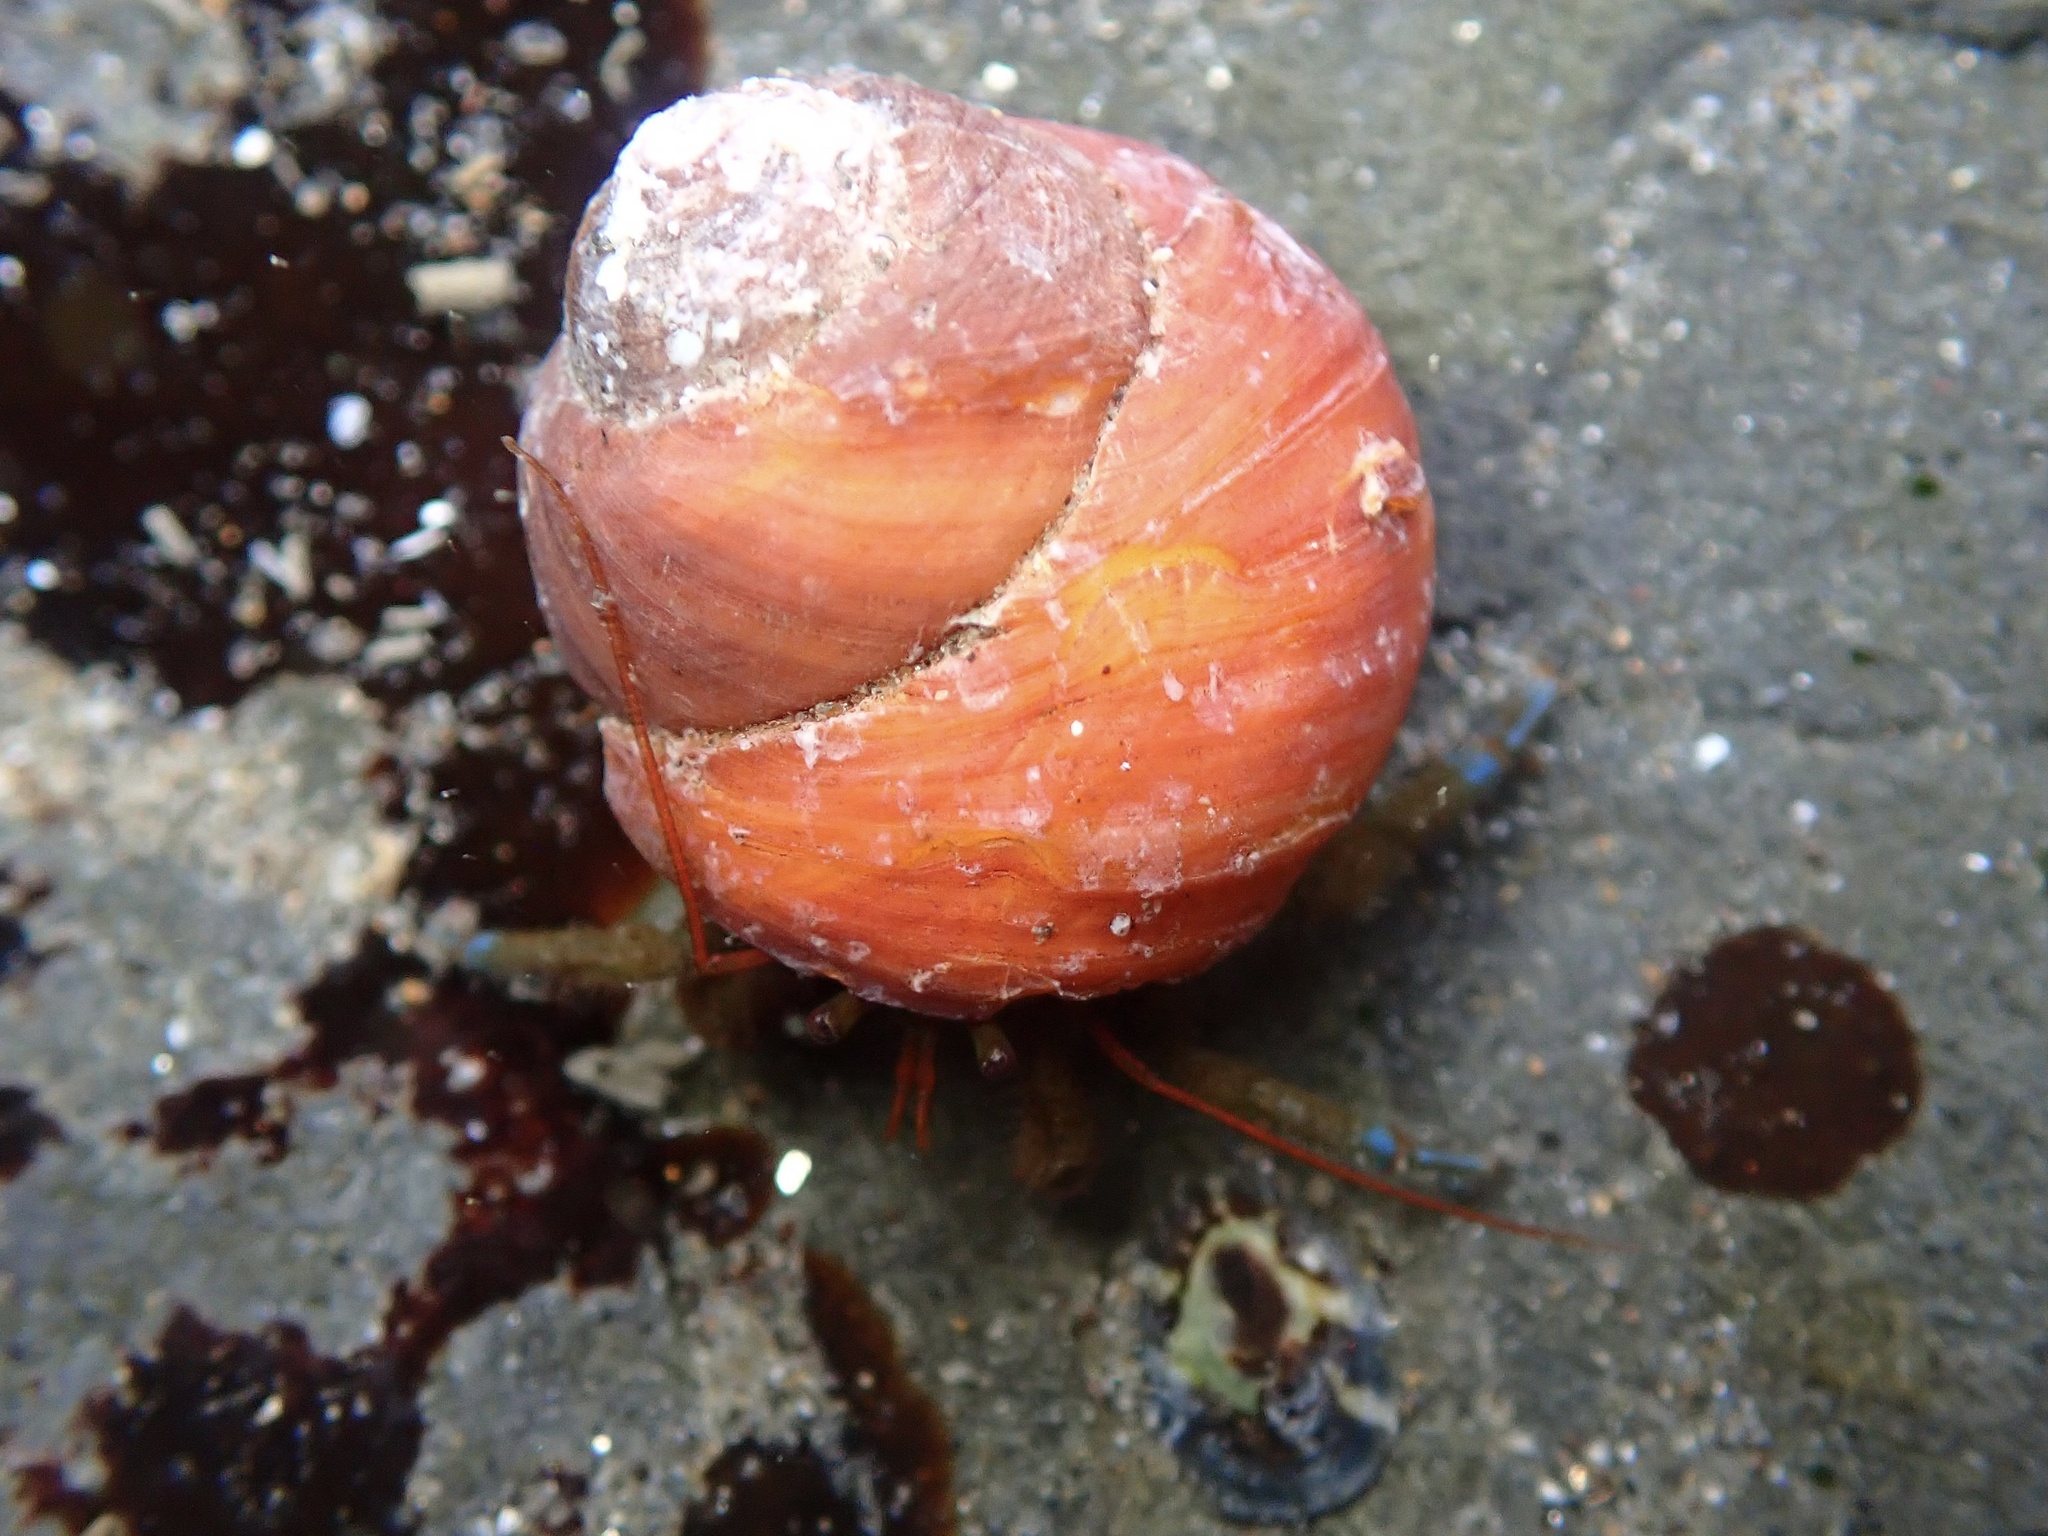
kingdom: Animalia
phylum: Mollusca
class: Gastropoda
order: Trochida
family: Tegulidae
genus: Tegula
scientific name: Tegula brunnea
